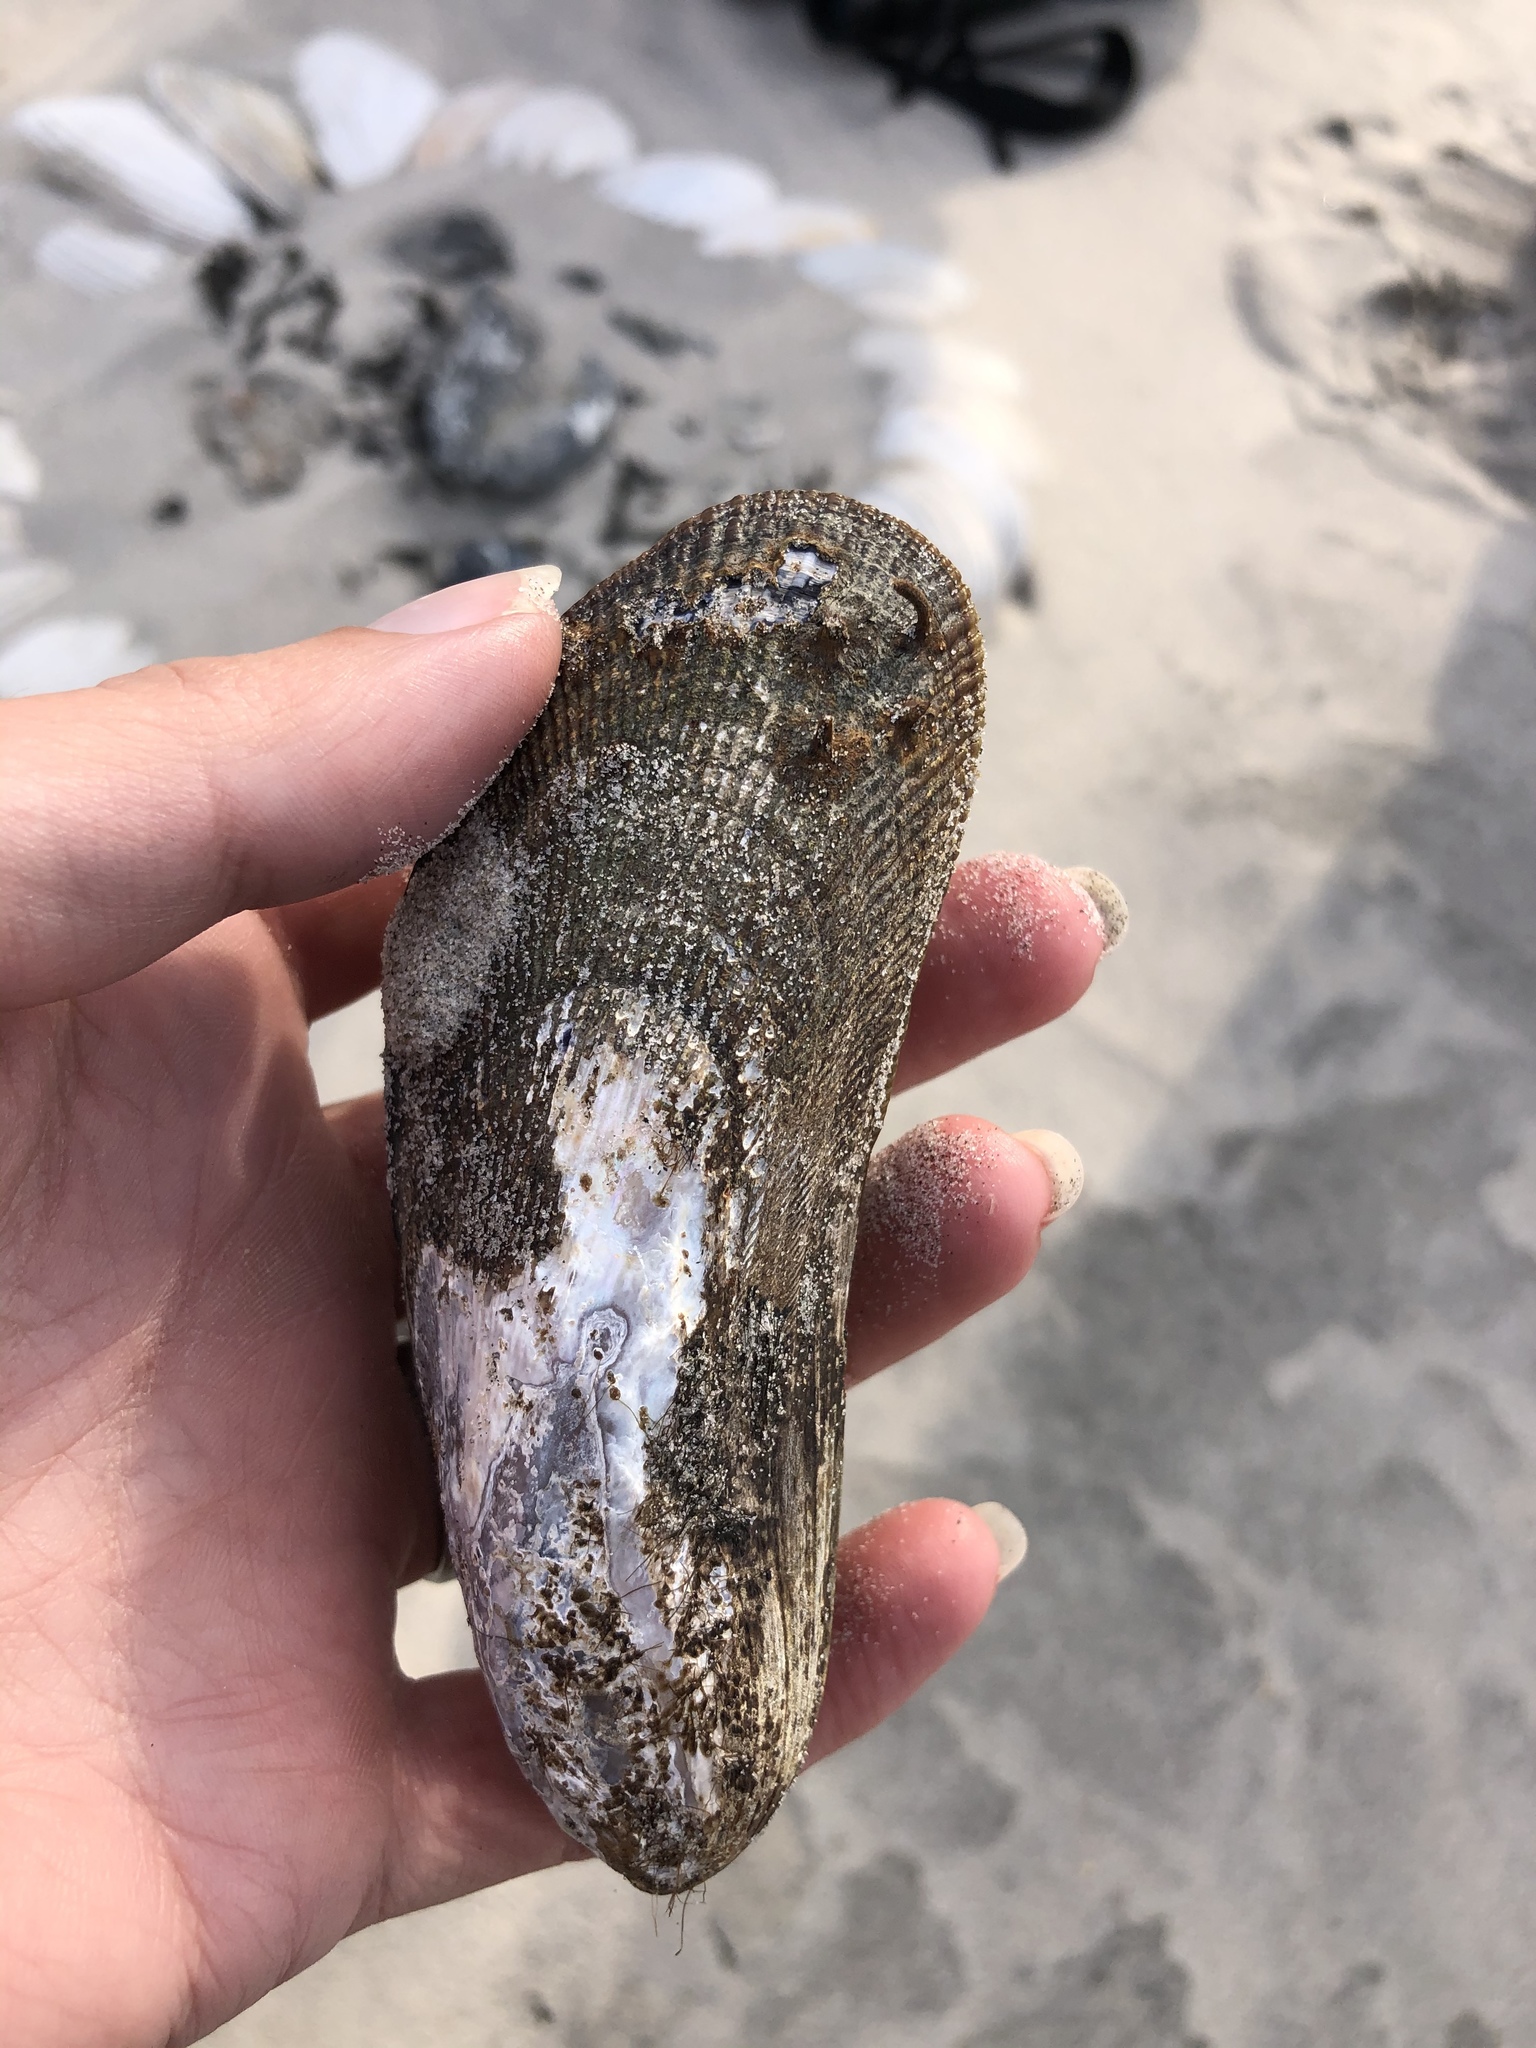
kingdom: Animalia
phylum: Mollusca
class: Bivalvia
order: Mytilida
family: Mytilidae
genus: Geukensia
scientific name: Geukensia demissa
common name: Ribbed mussel
